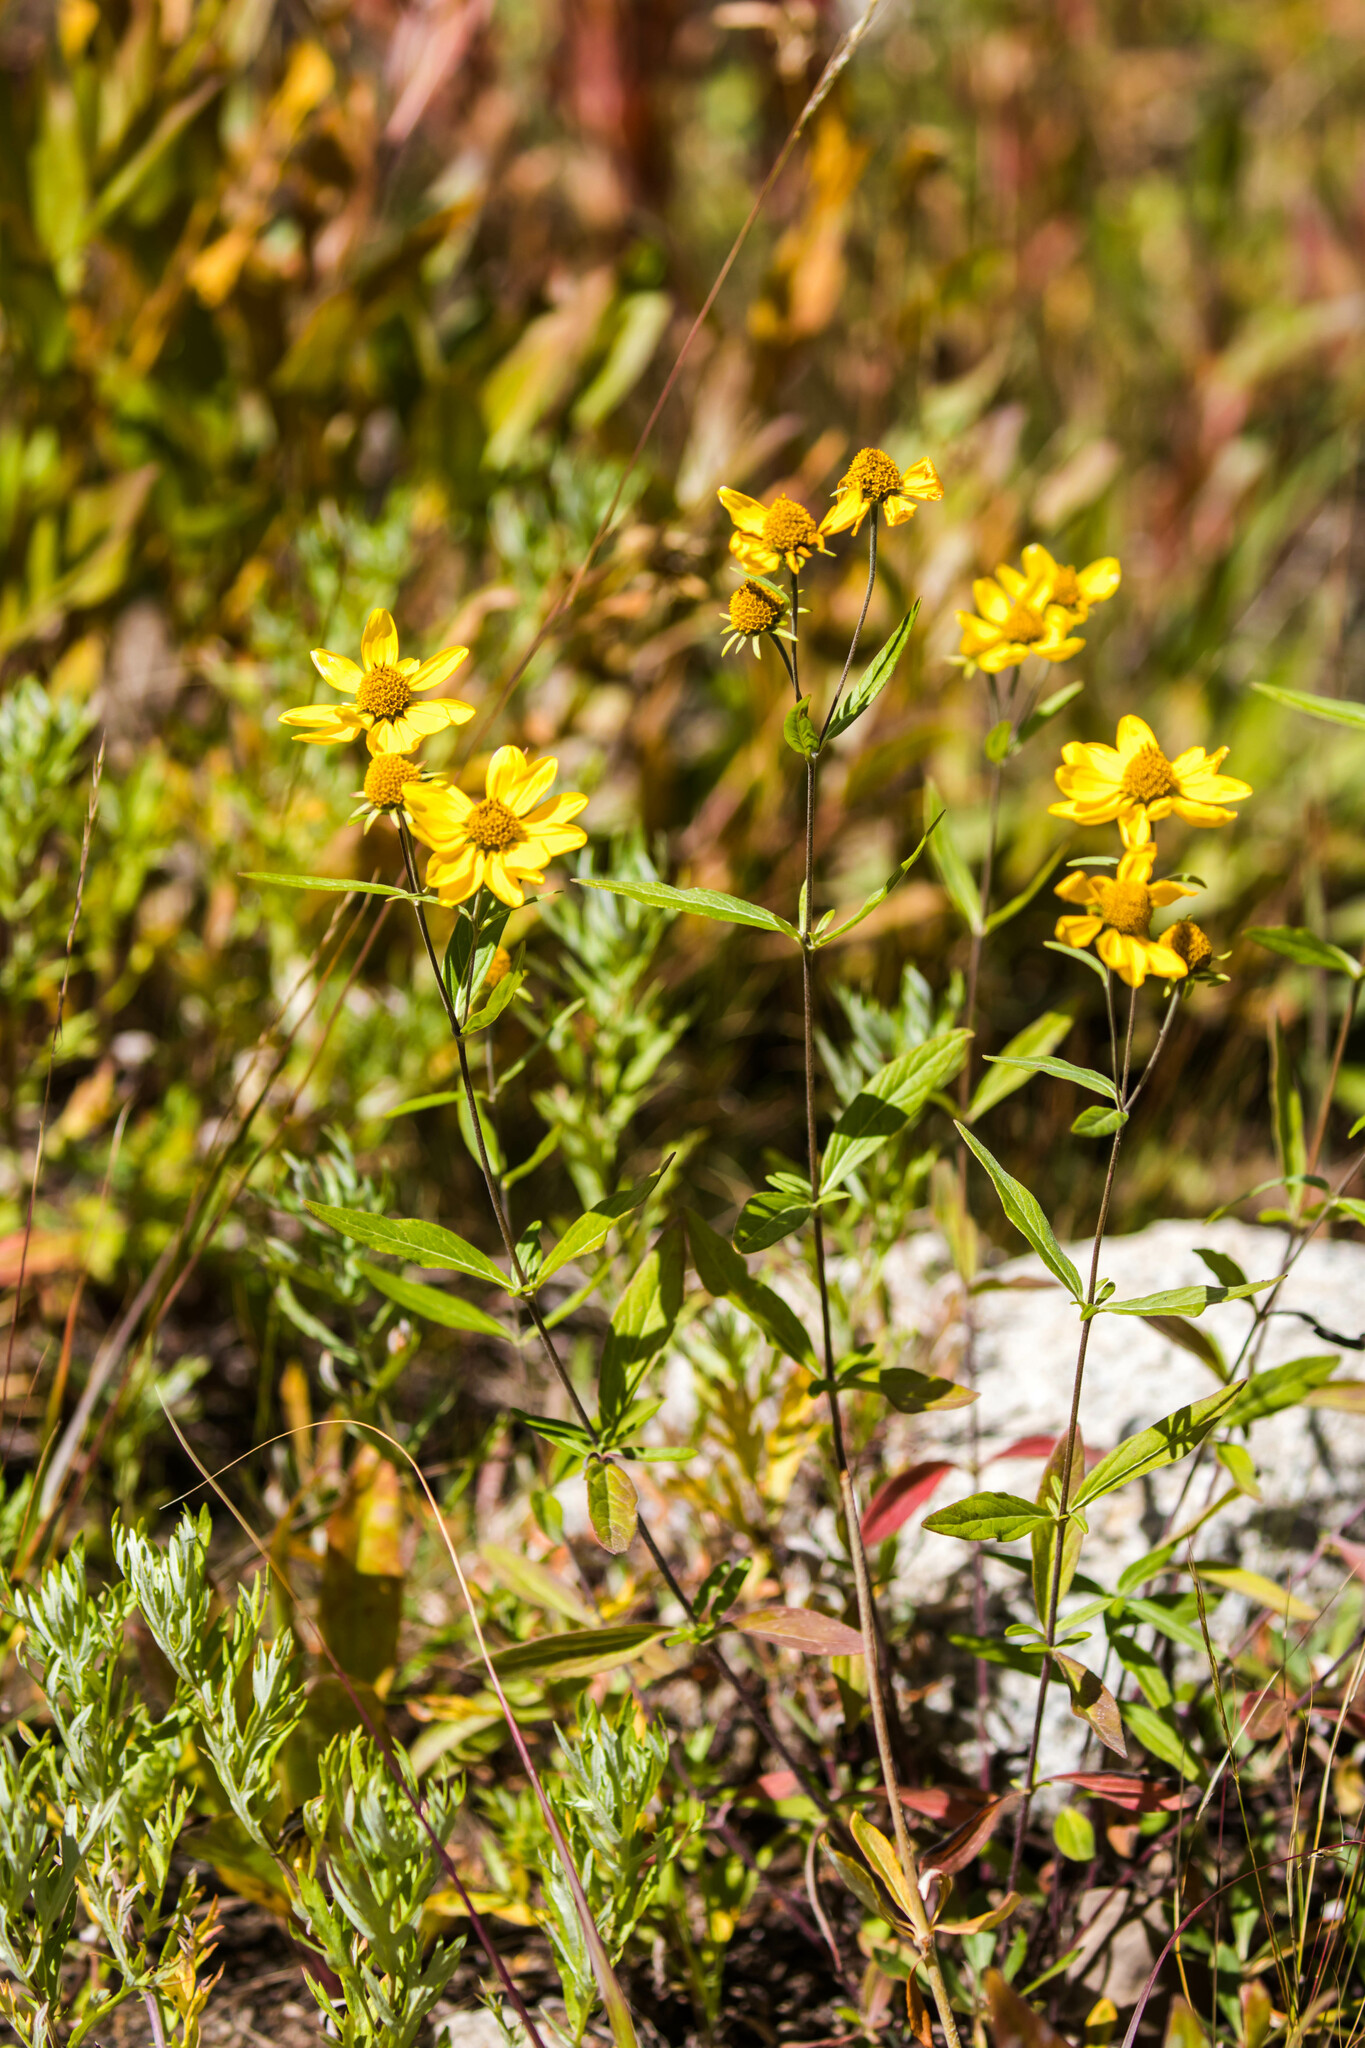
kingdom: Plantae
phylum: Tracheophyta
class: Magnoliopsida
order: Asterales
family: Asteraceae
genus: Heliomeris
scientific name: Heliomeris multiflora
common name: Showy goldeneye
